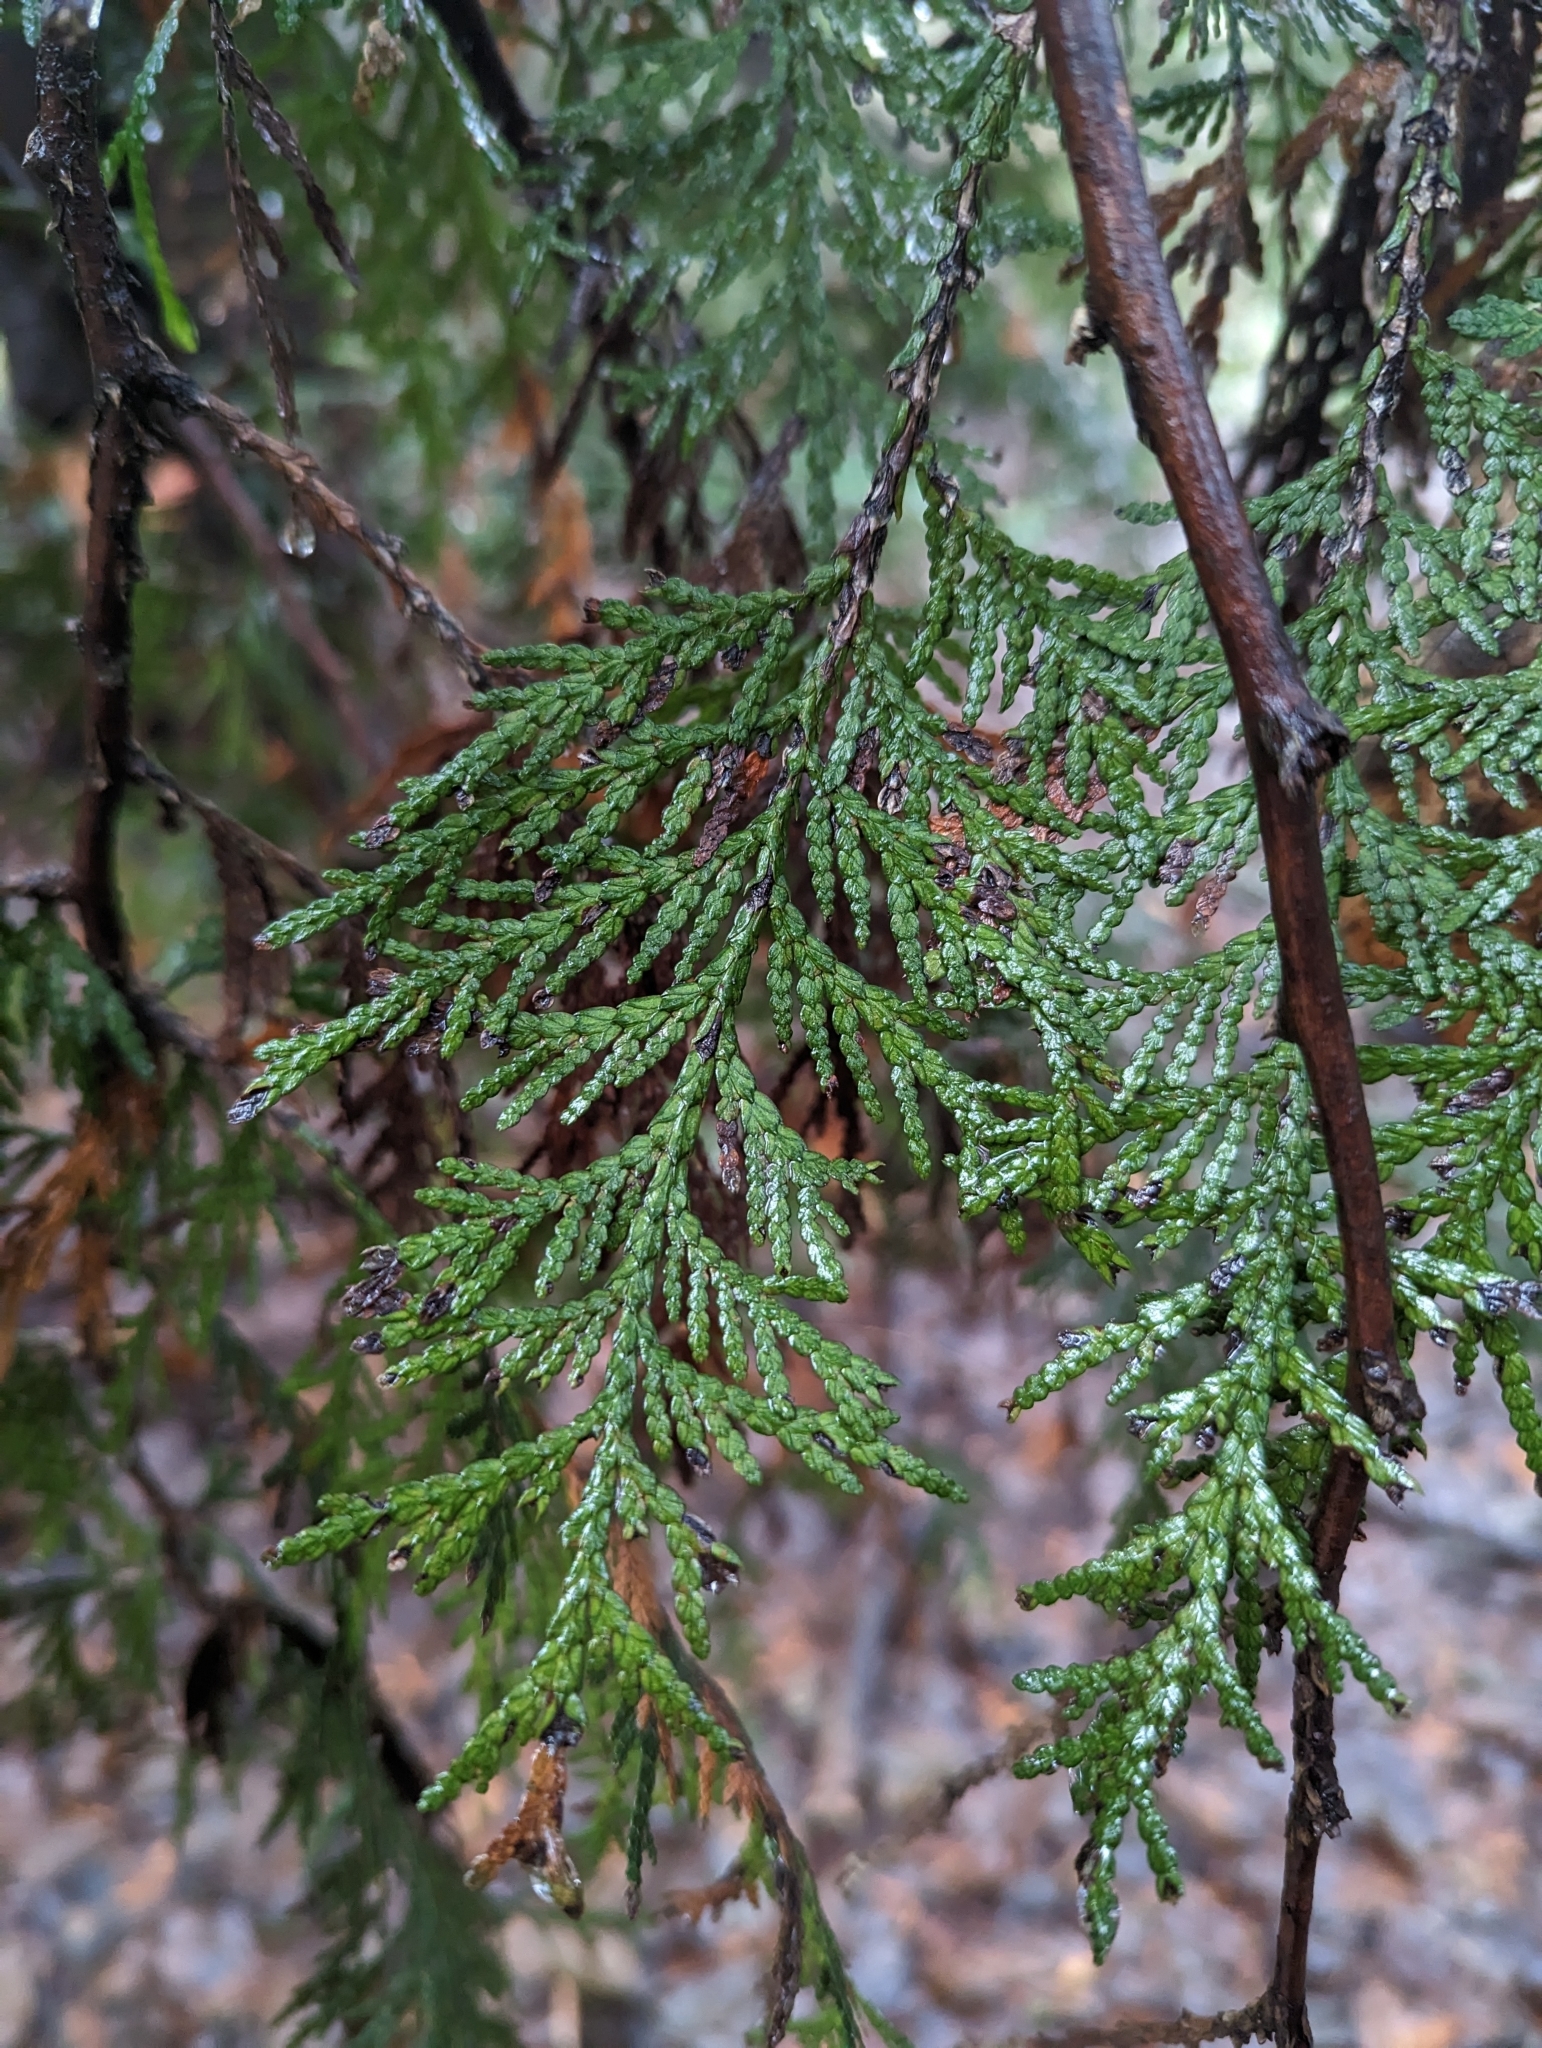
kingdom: Plantae
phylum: Tracheophyta
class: Pinopsida
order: Pinales
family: Cupressaceae
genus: Thuja
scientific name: Thuja plicata
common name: Western red-cedar
